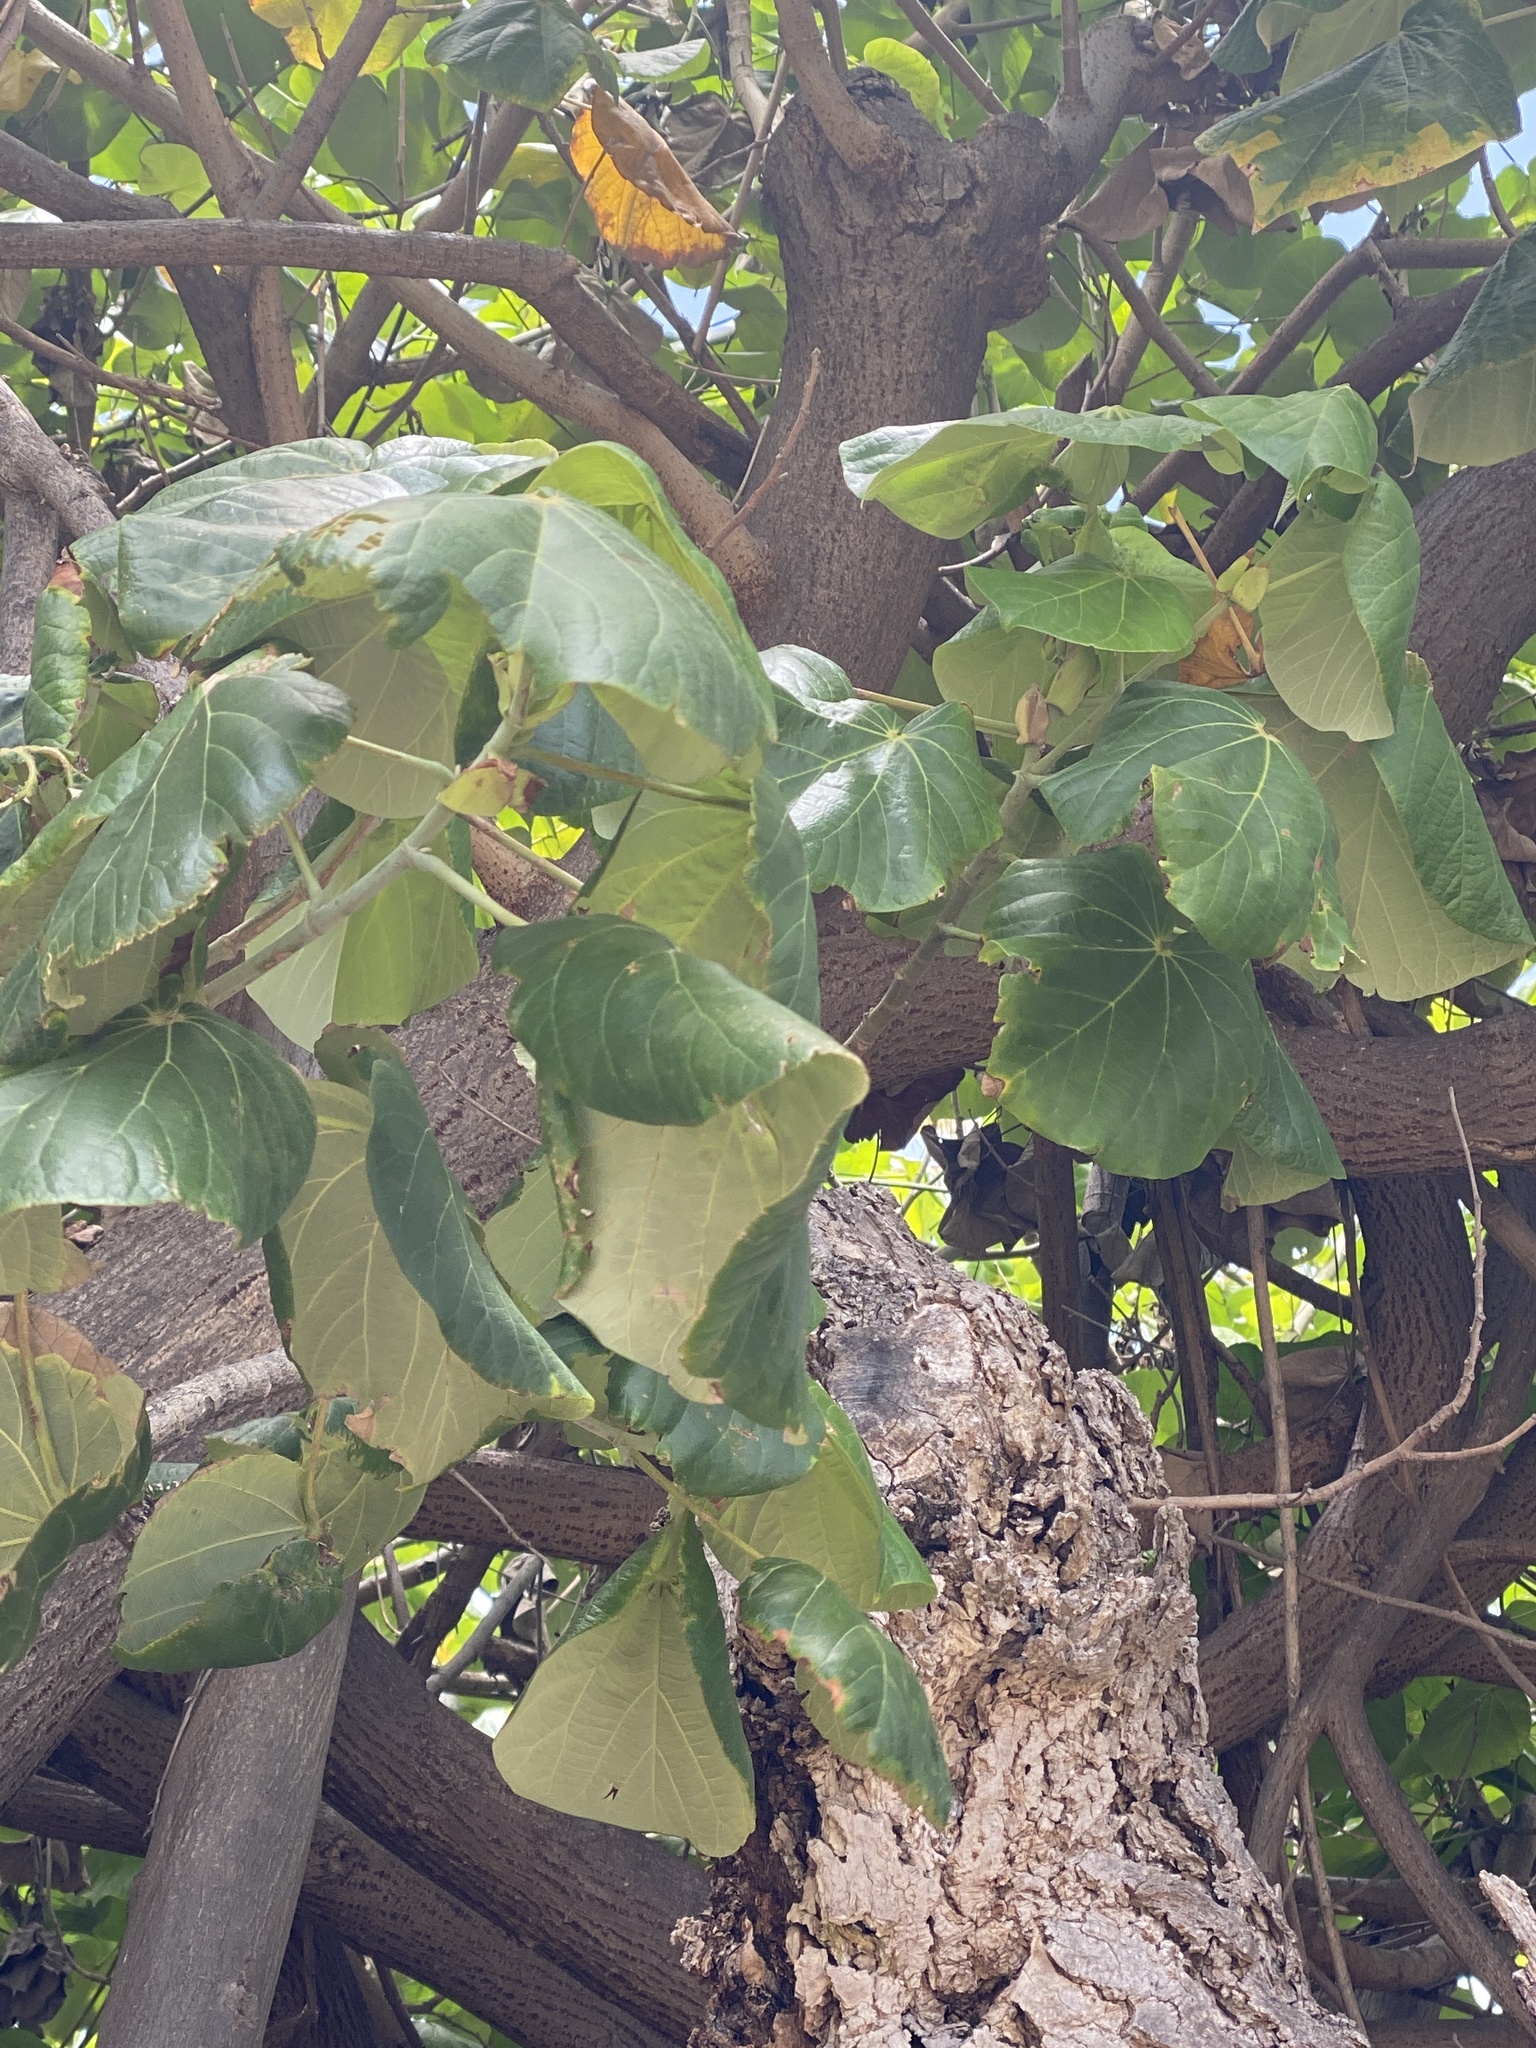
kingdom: Plantae
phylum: Tracheophyta
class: Magnoliopsida
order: Malvales
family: Malvaceae
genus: Talipariti
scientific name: Talipariti tiliaceum
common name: Sea hibiscus
